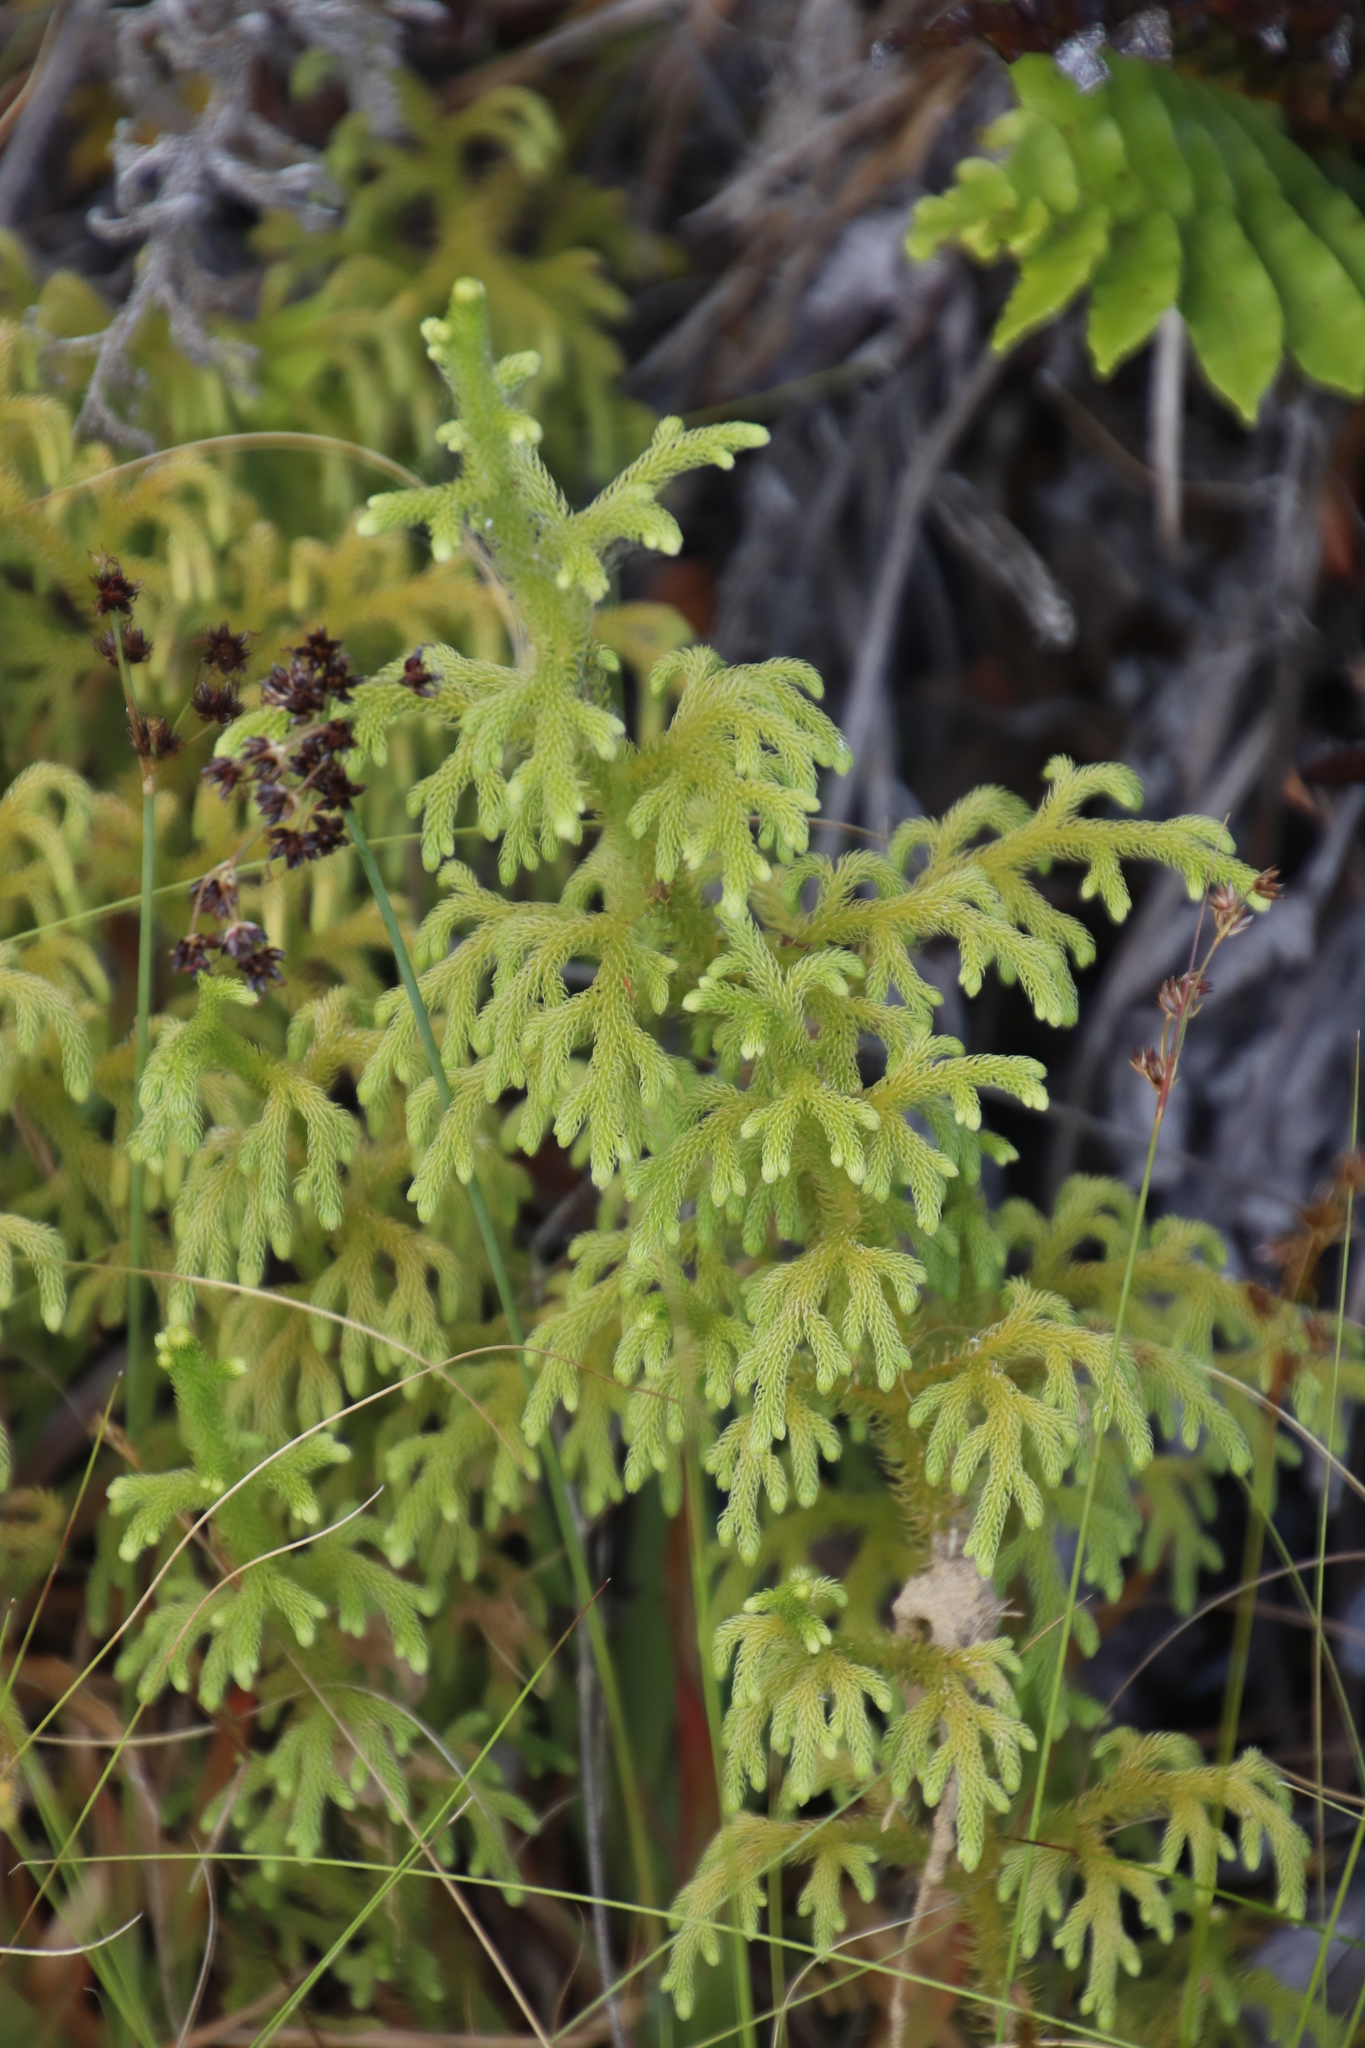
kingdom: Plantae
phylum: Tracheophyta
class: Lycopodiopsida
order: Lycopodiales
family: Lycopodiaceae
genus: Palhinhaea
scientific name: Palhinhaea cernua
